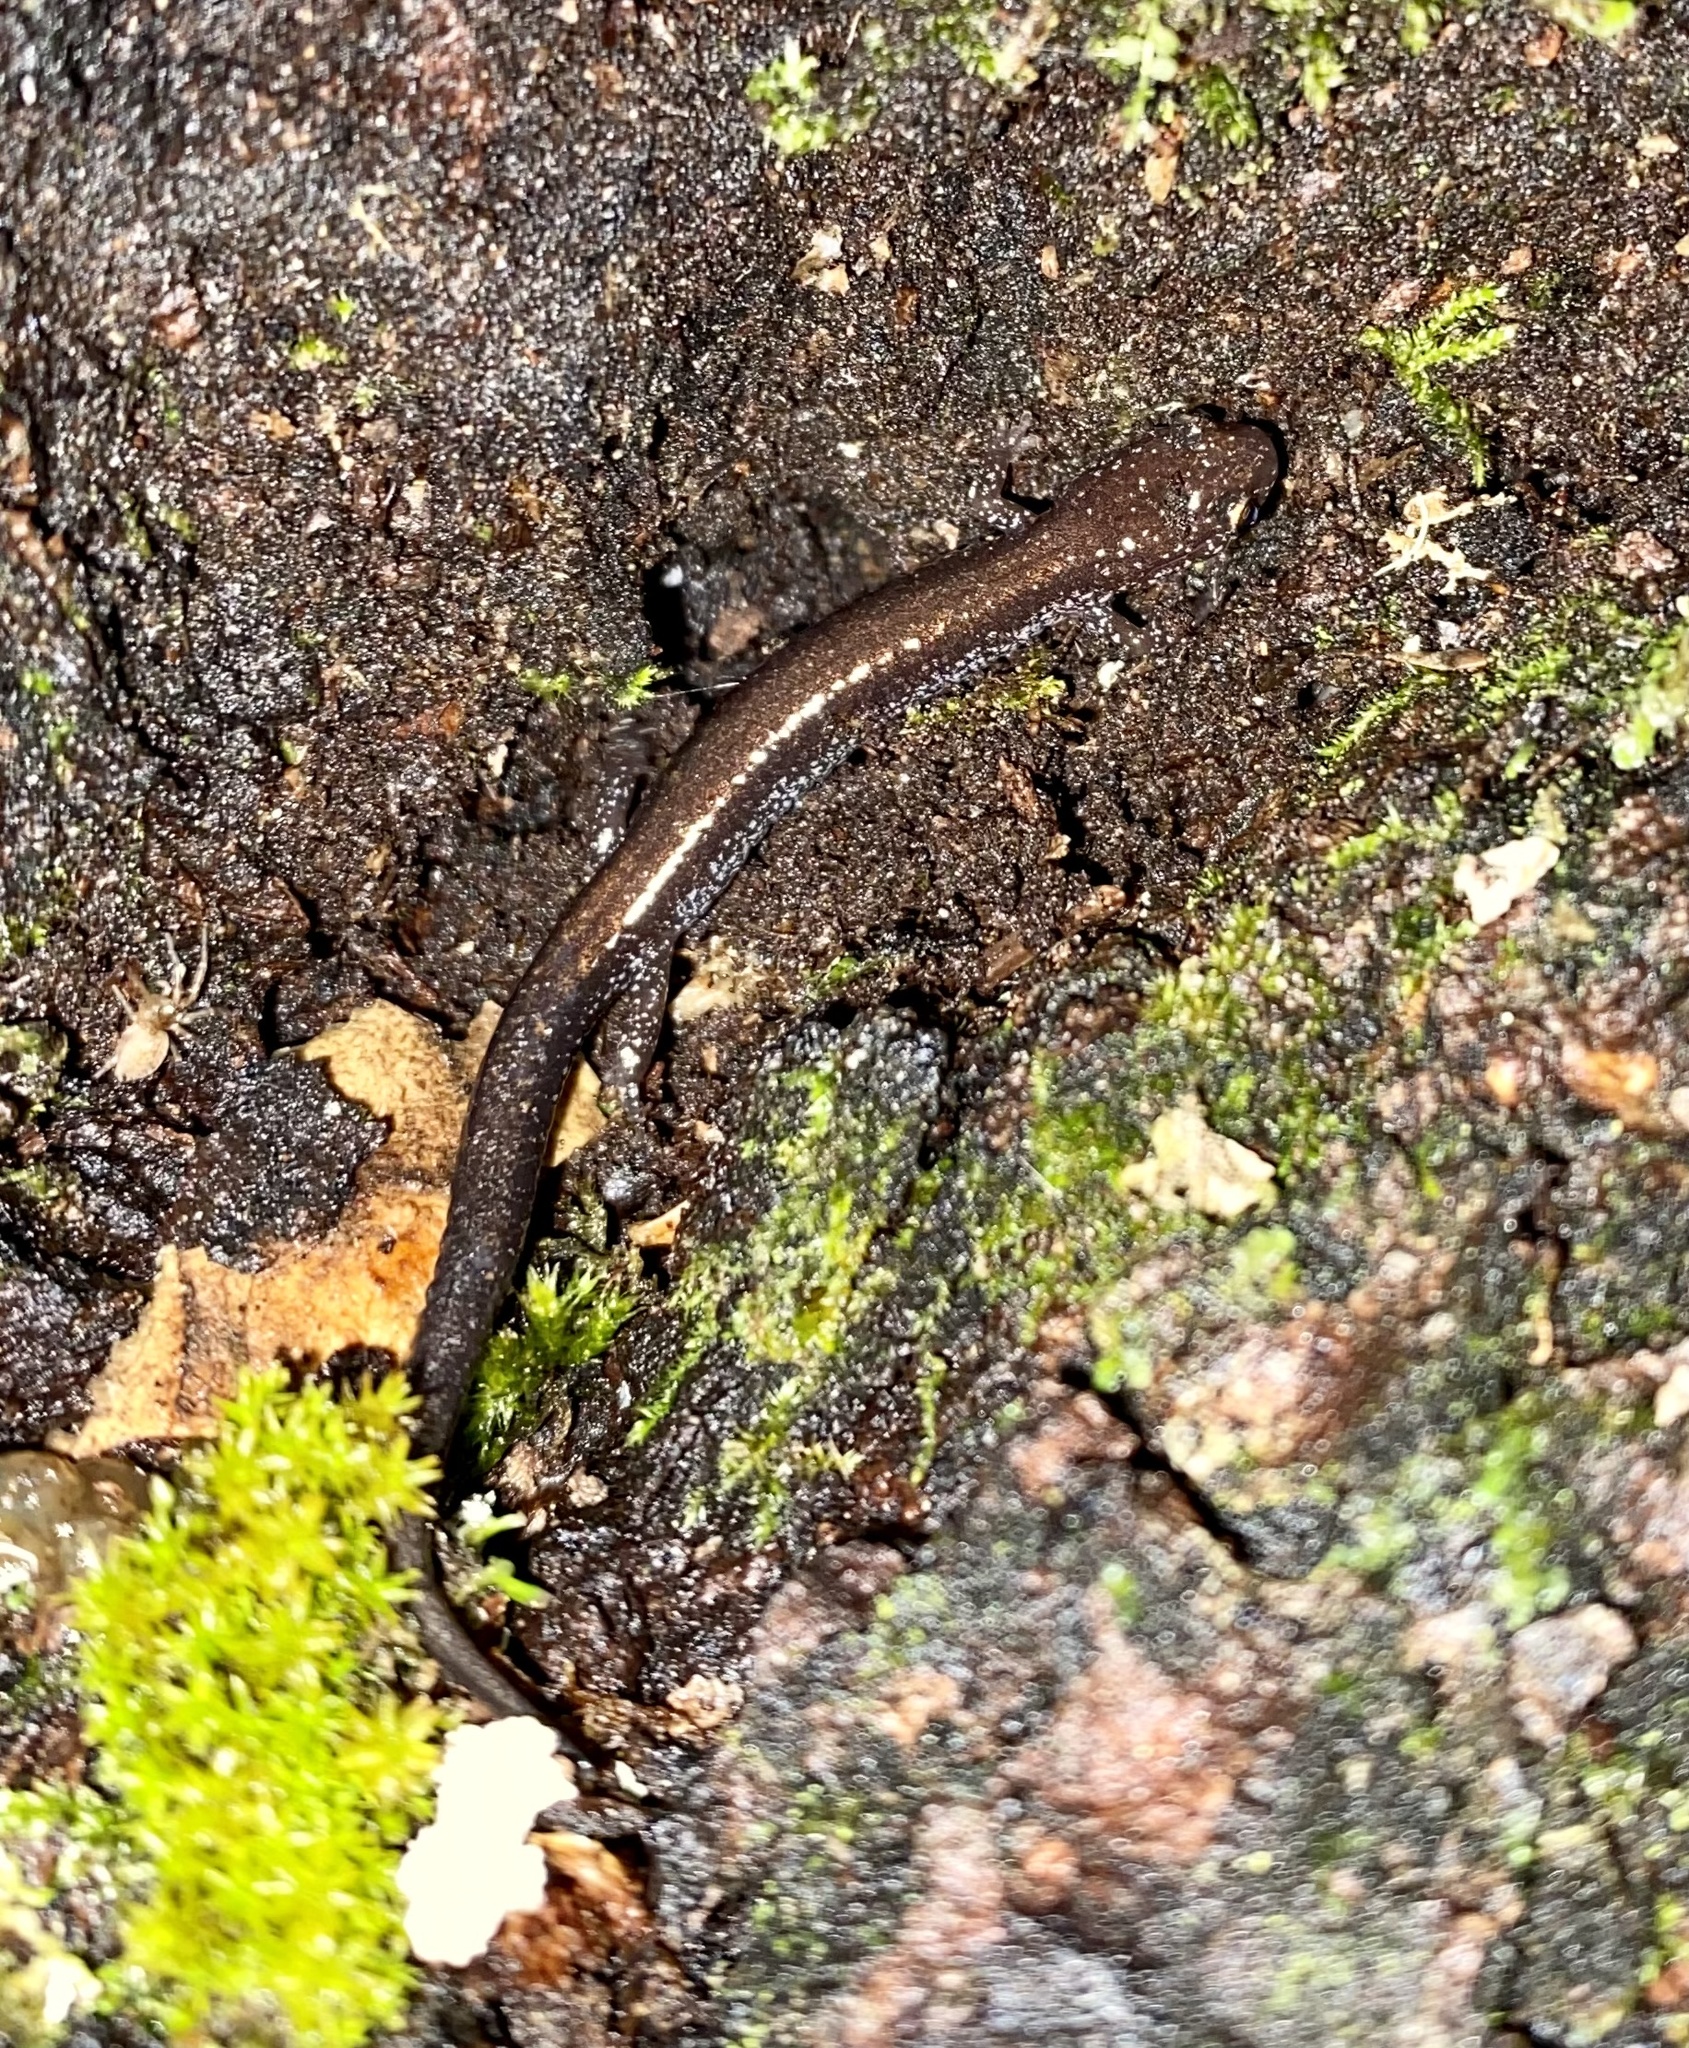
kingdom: Animalia
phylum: Chordata
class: Amphibia
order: Caudata
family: Plethodontidae
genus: Plethodon
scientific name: Plethodon cinereus
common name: Redback salamander
